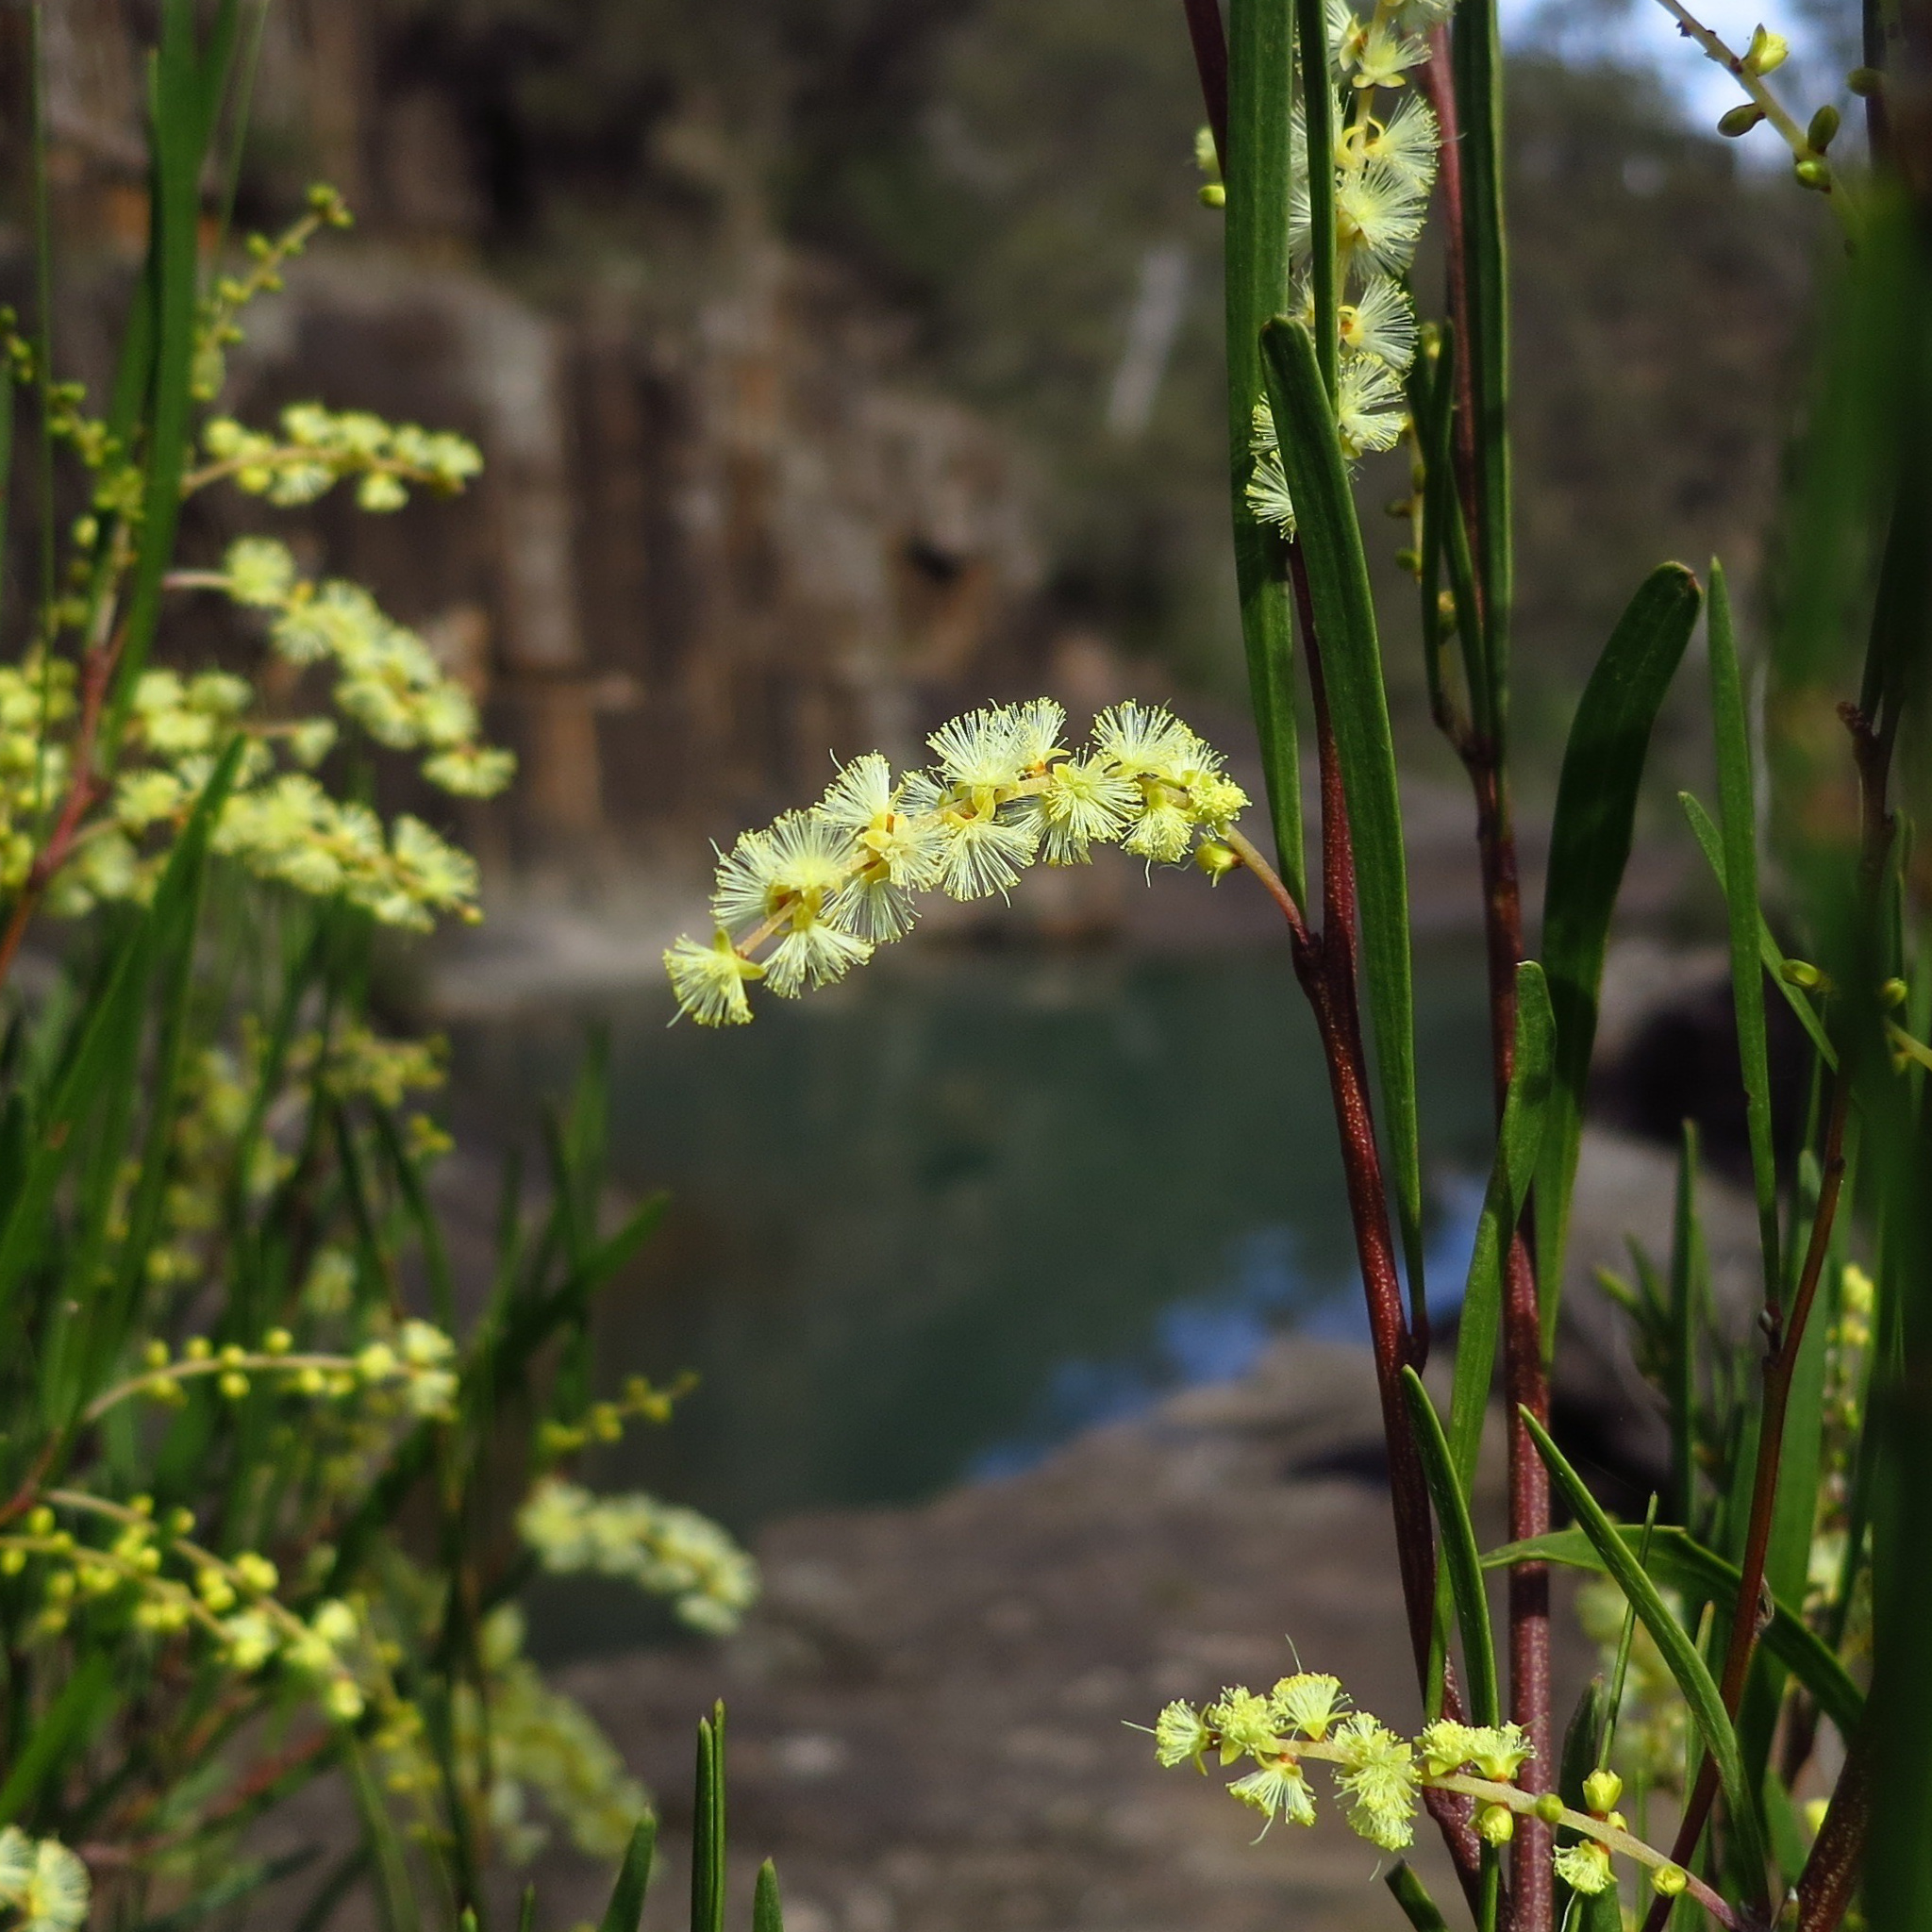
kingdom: Plantae
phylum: Tracheophyta
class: Magnoliopsida
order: Fabales
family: Fabaceae
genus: Acacia
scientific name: Acacia mucronata
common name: Variable sallow wattle
